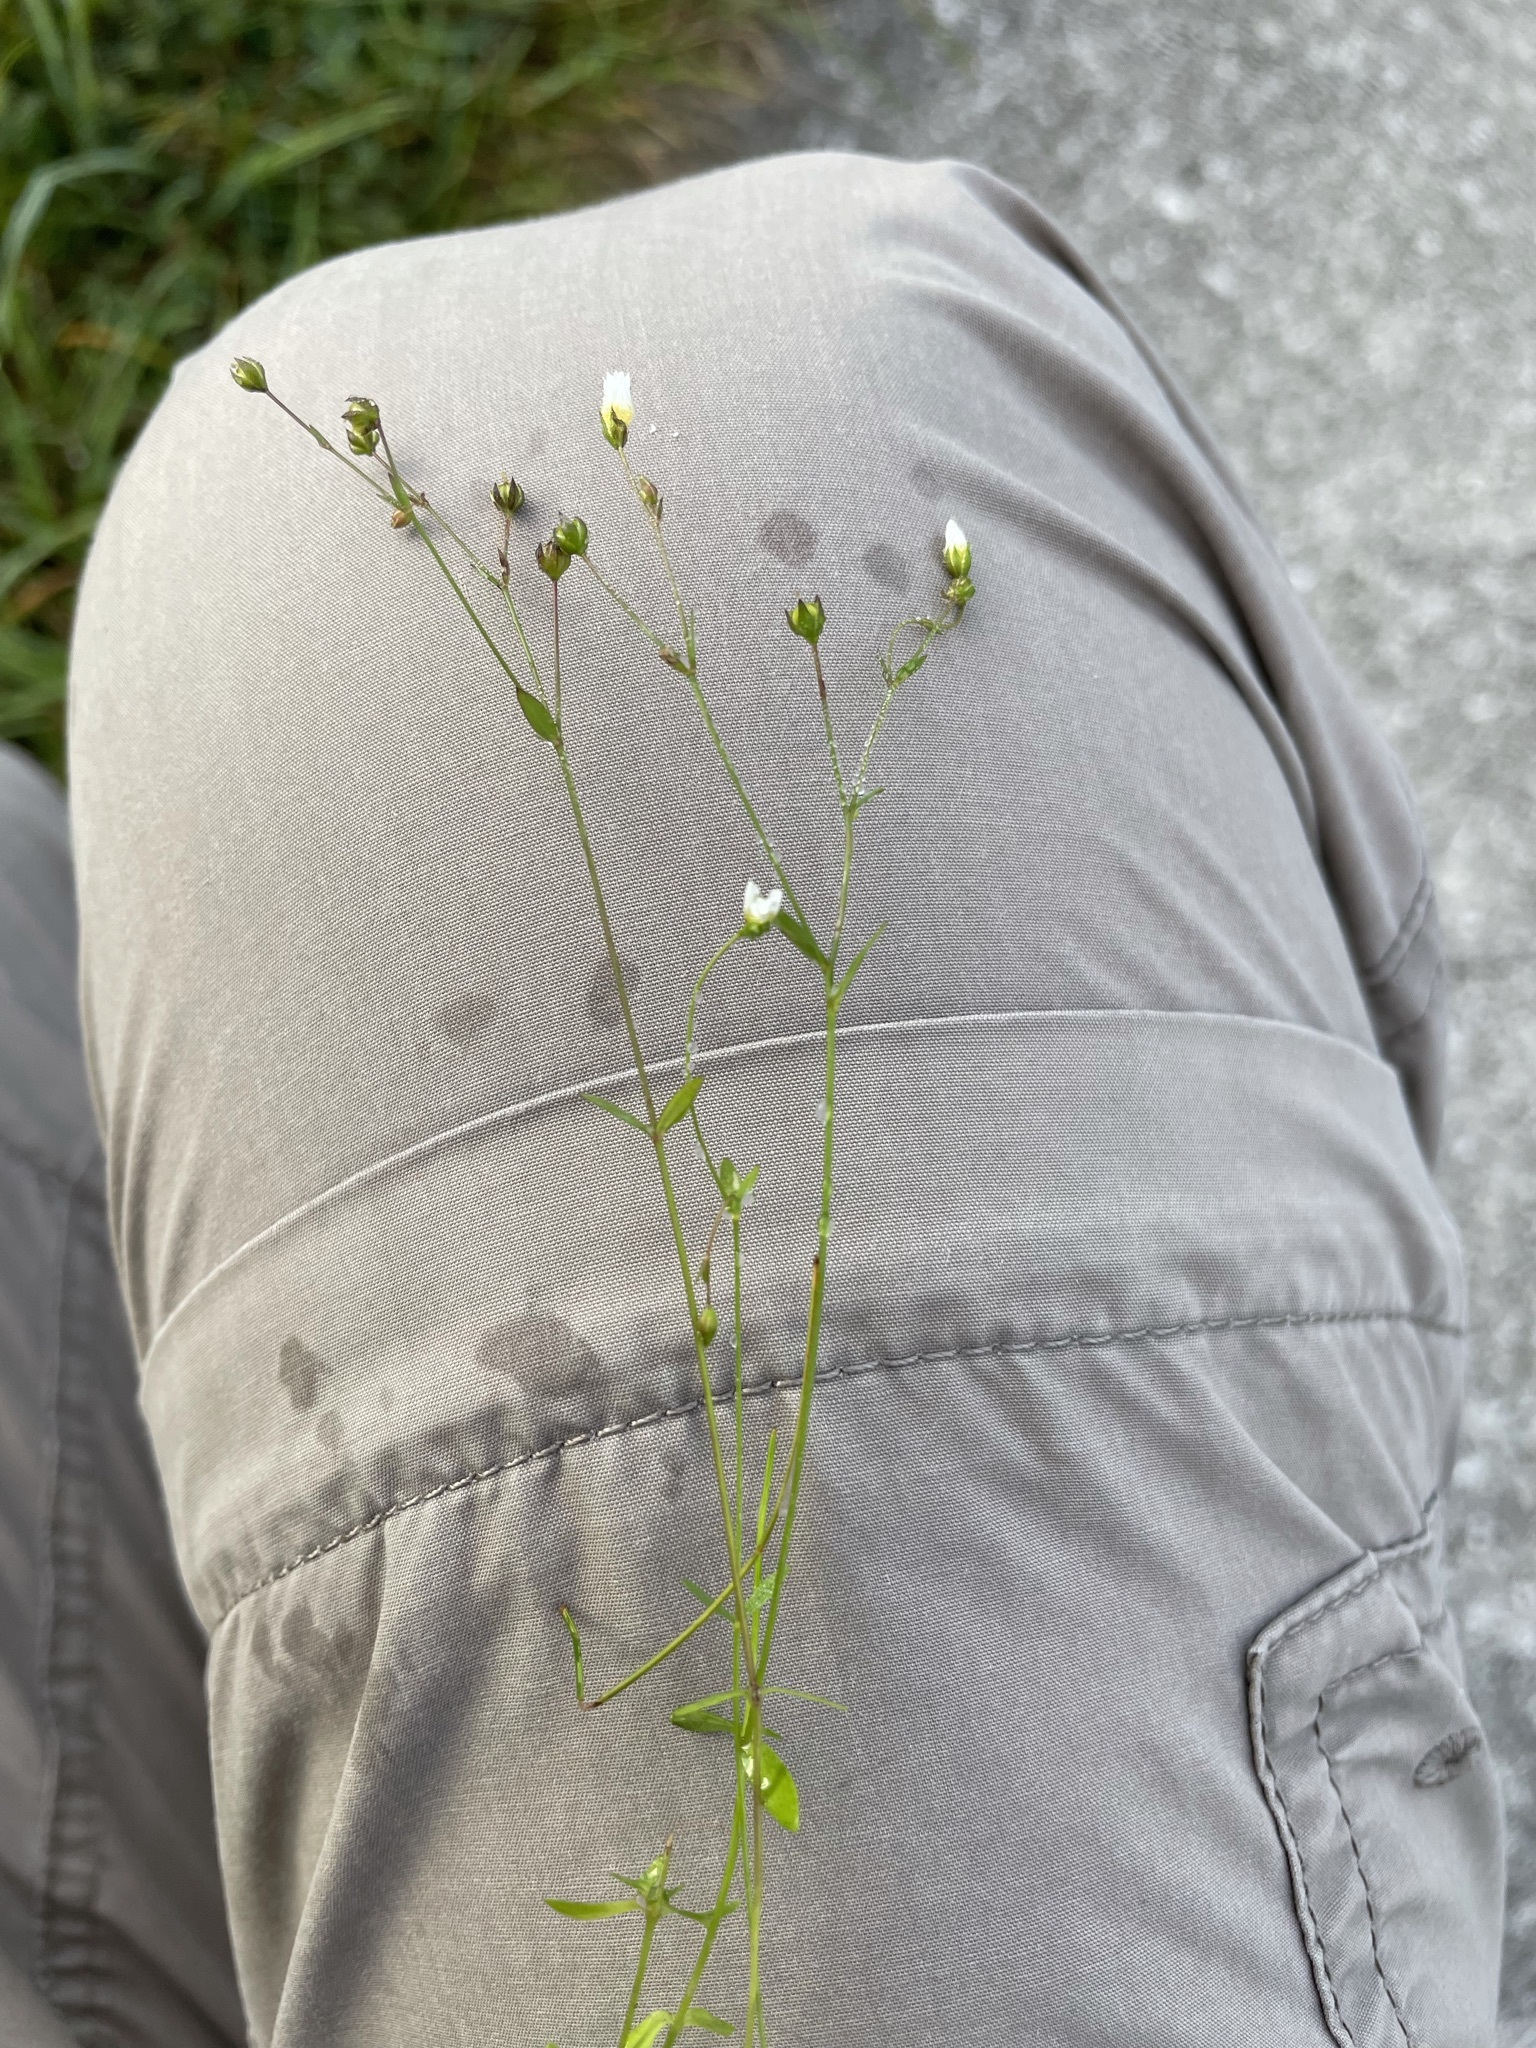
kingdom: Plantae
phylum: Tracheophyta
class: Magnoliopsida
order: Malpighiales
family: Linaceae
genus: Linum
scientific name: Linum catharticum
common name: Fairy flax
